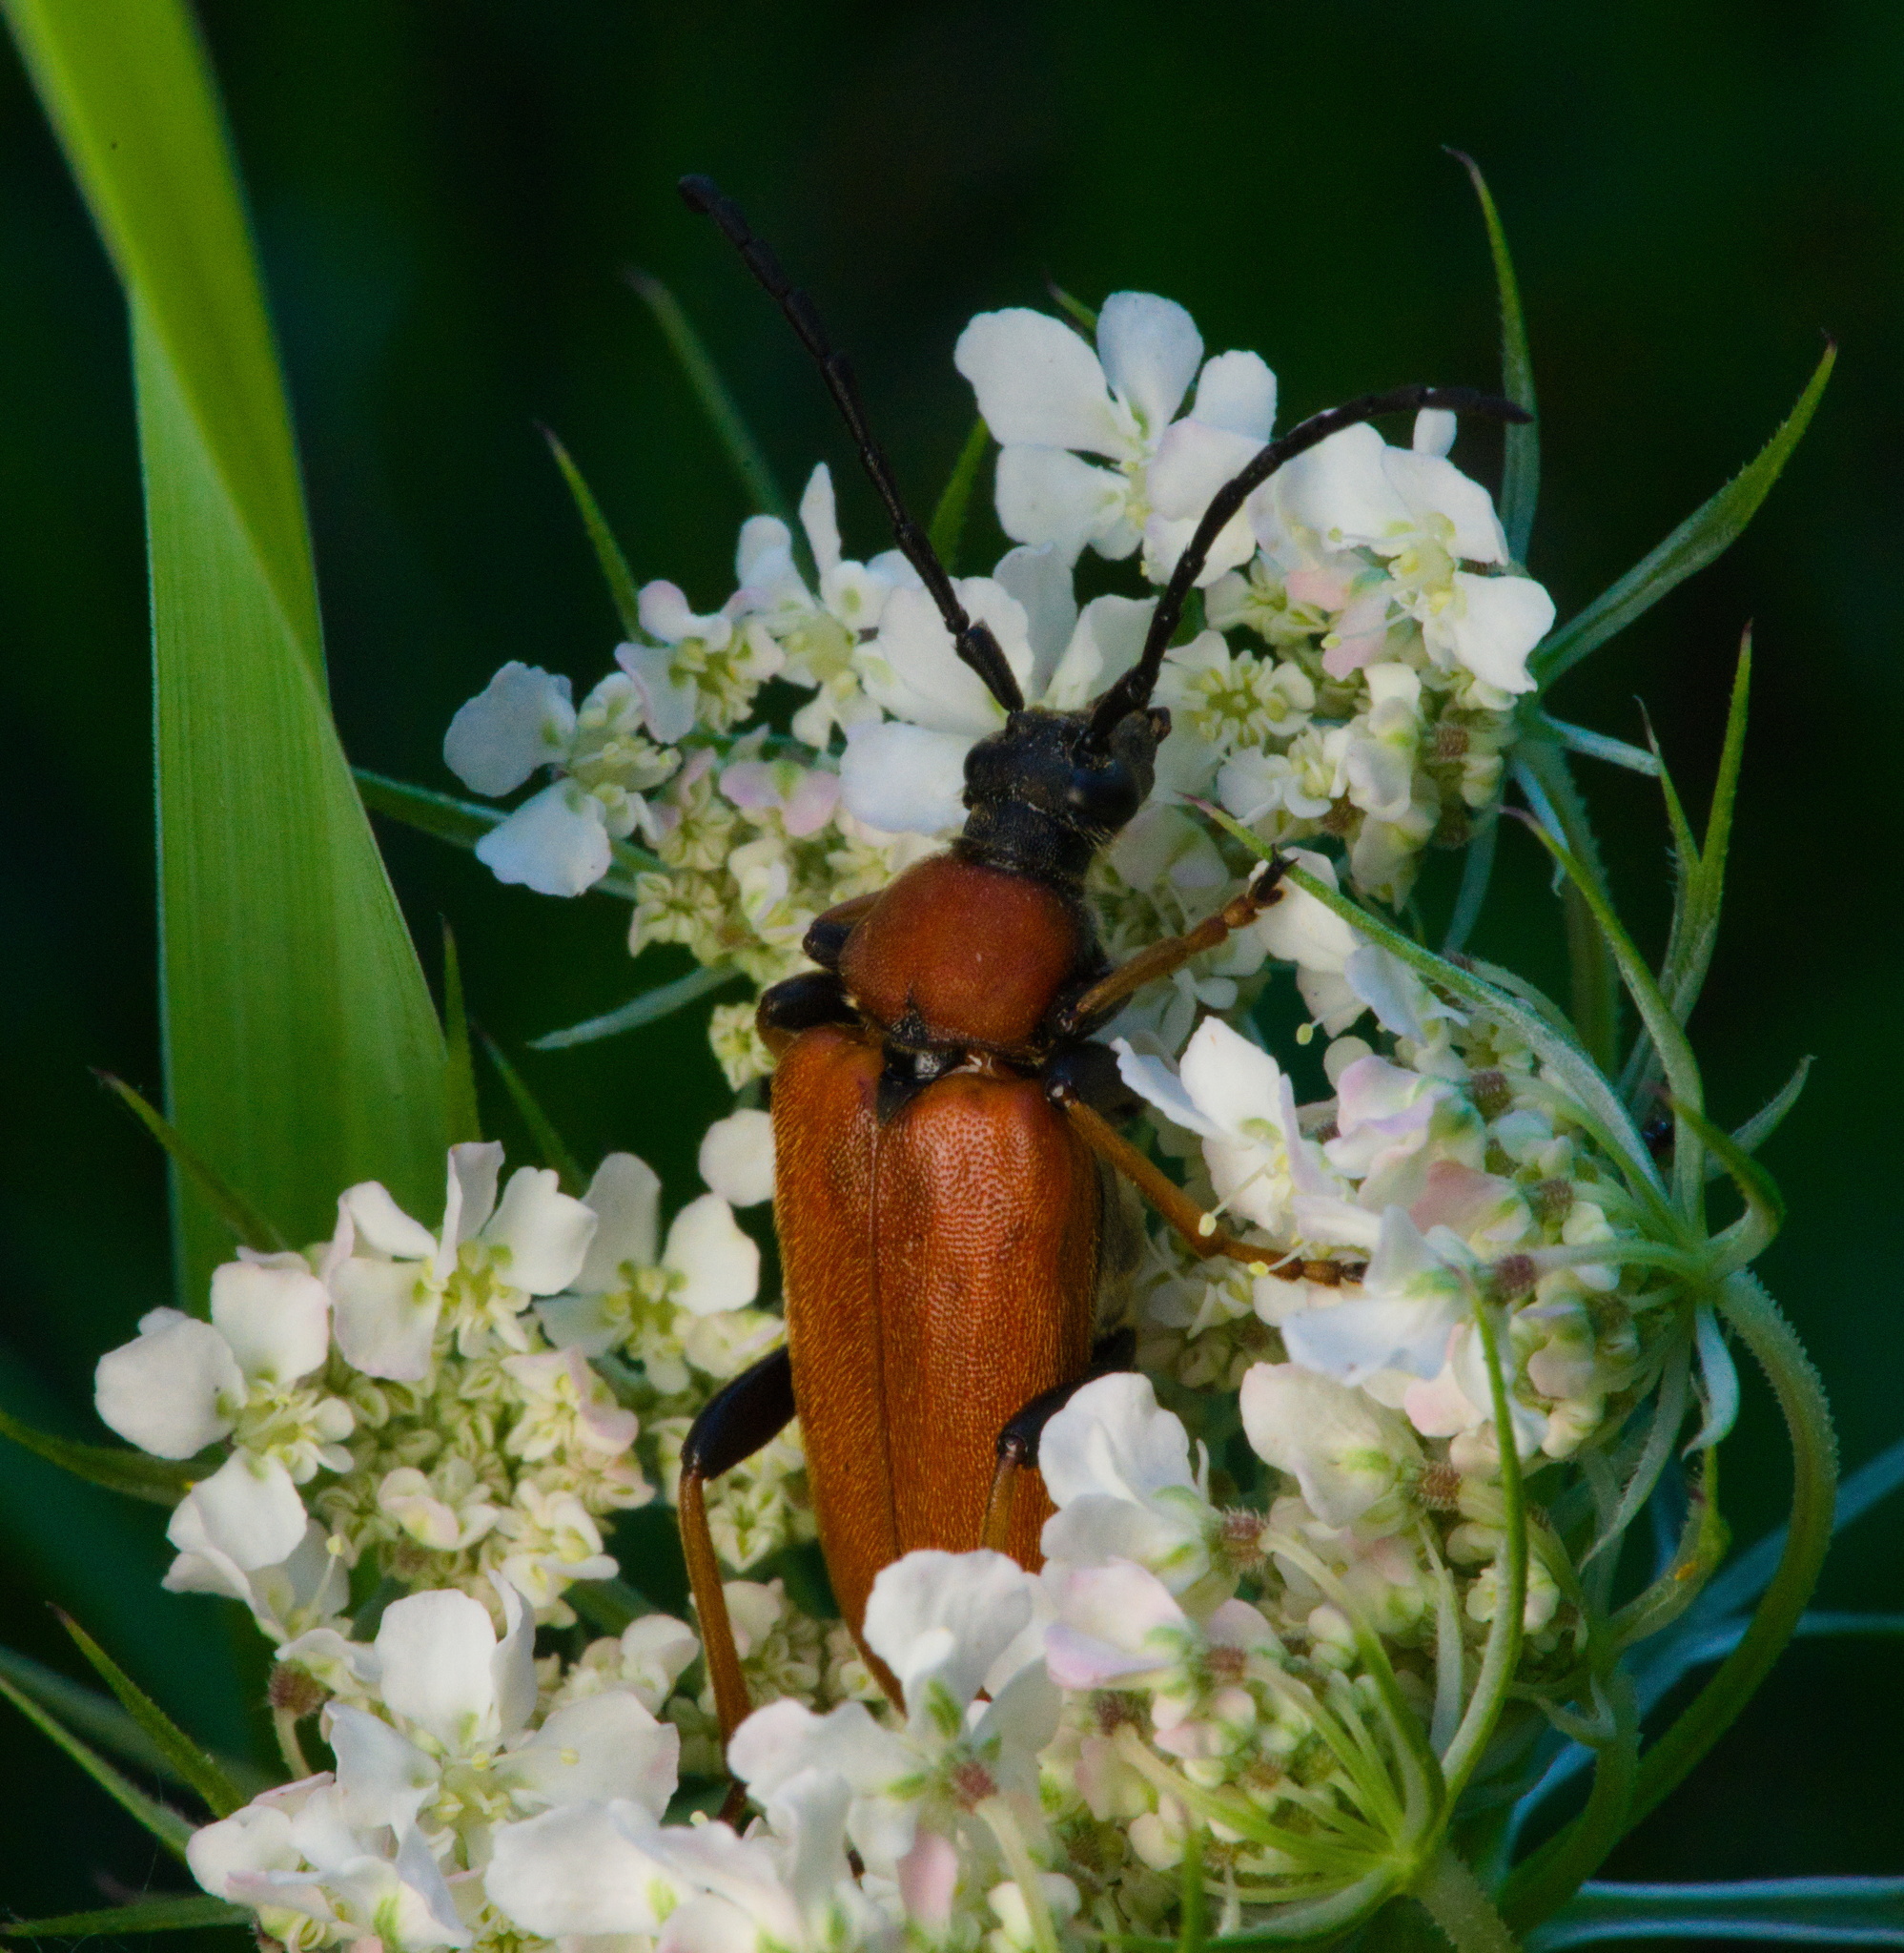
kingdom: Animalia
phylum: Arthropoda
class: Insecta
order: Coleoptera
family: Cerambycidae
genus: Stictoleptura
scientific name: Stictoleptura rubra
